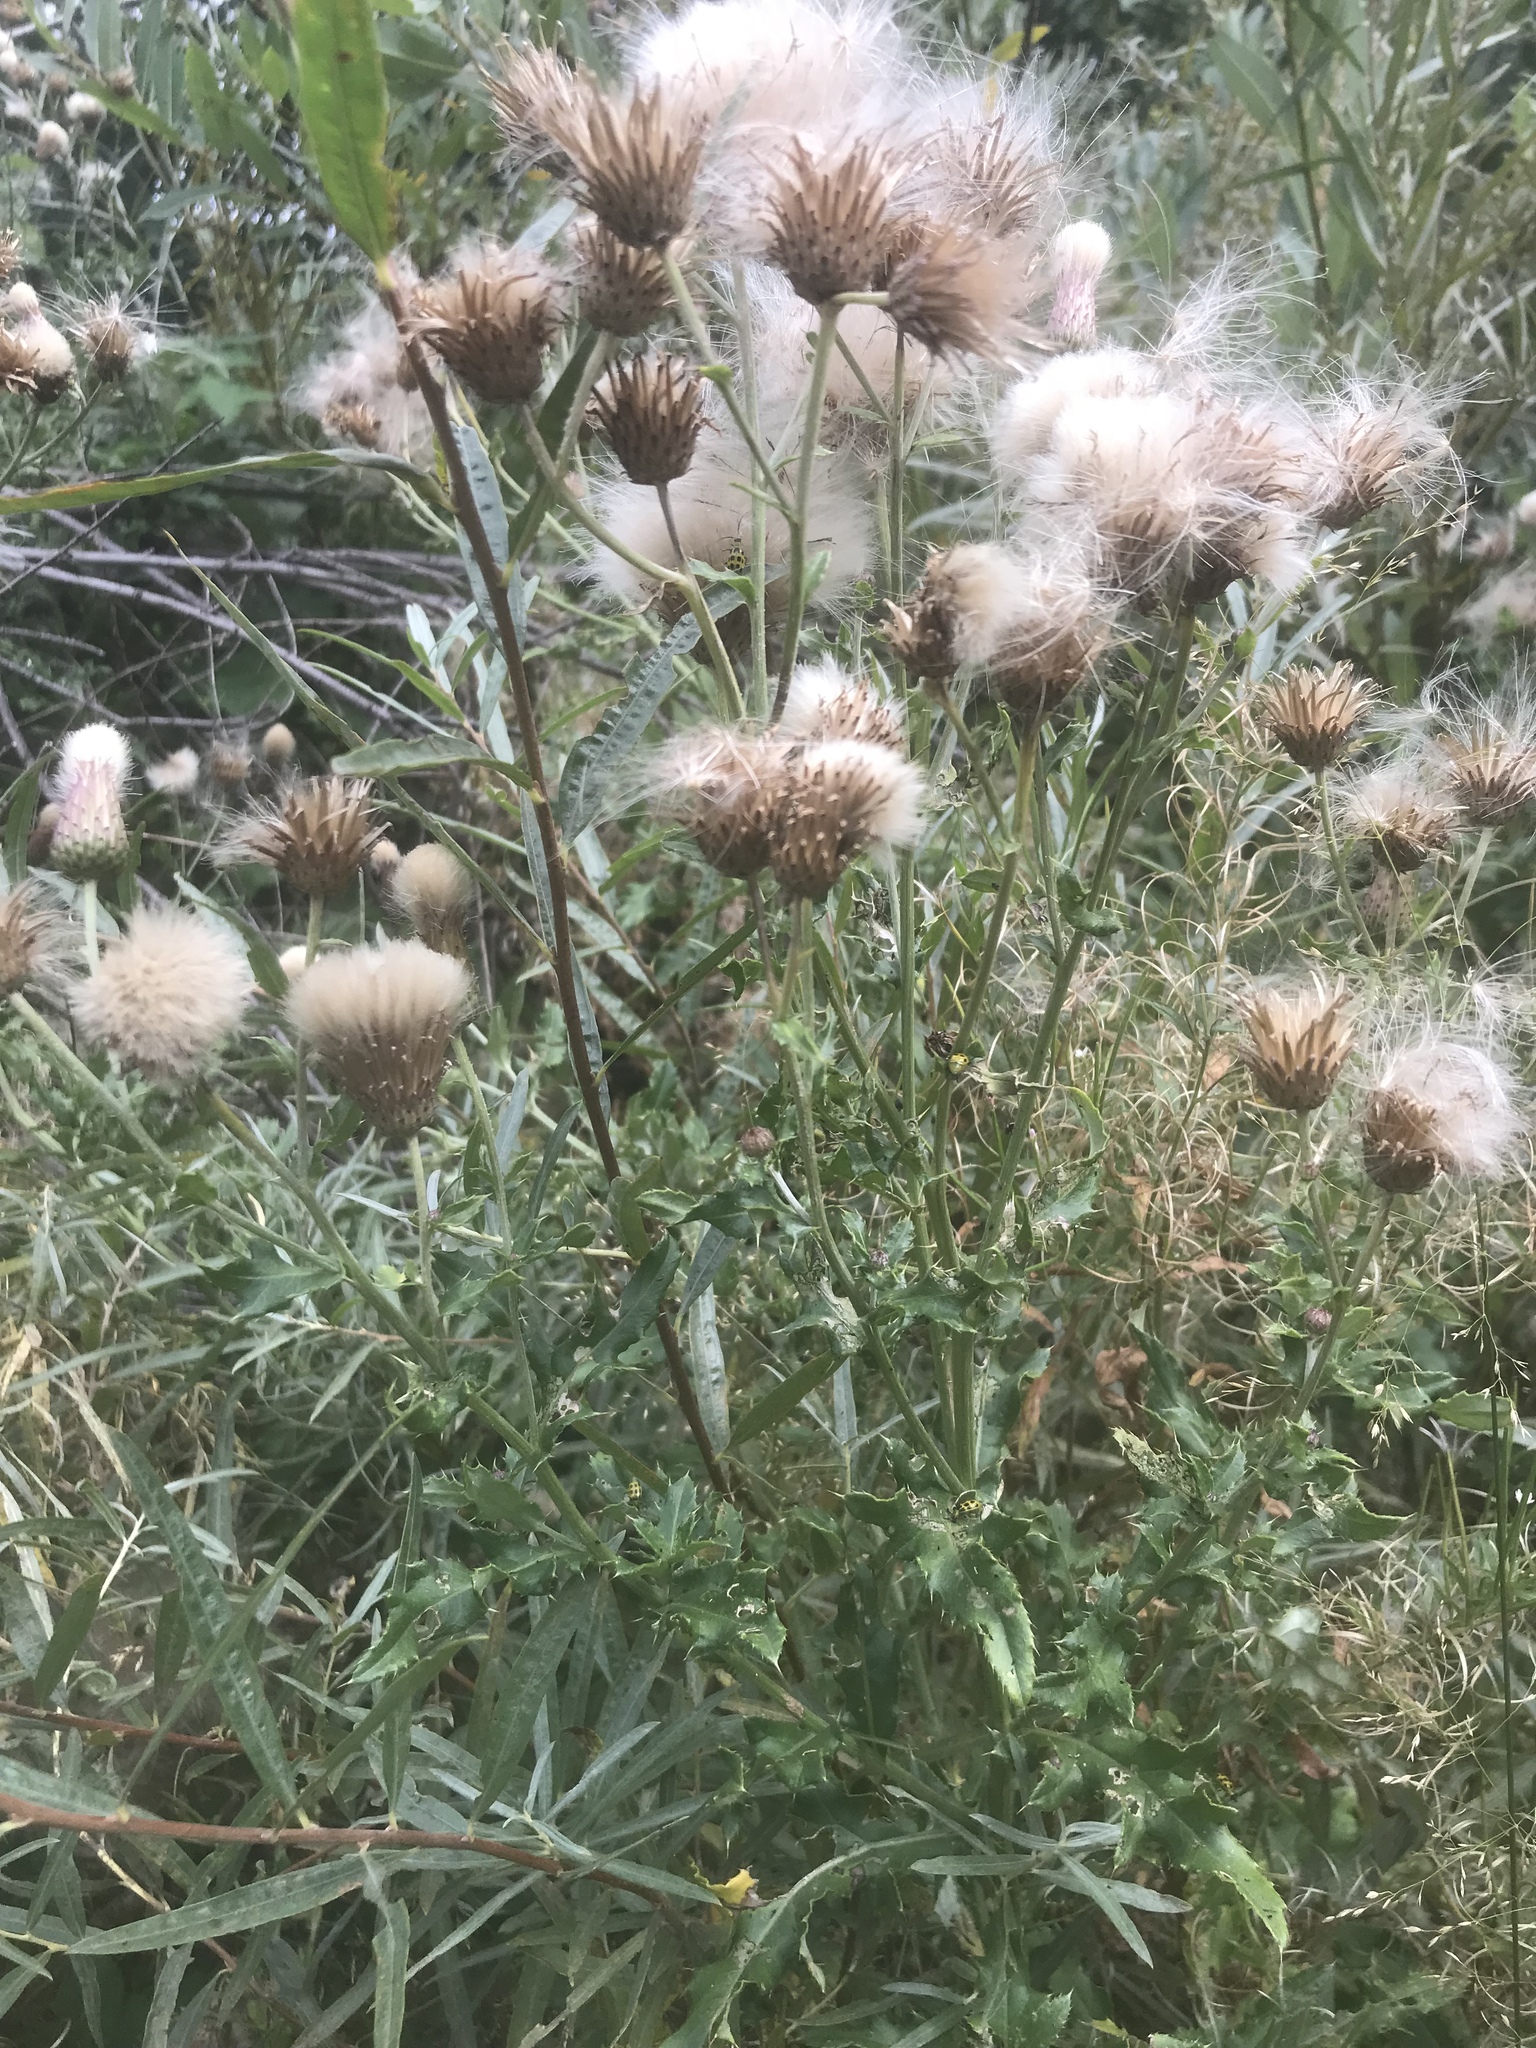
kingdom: Plantae
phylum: Tracheophyta
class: Magnoliopsida
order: Asterales
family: Asteraceae
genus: Cirsium
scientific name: Cirsium arvense
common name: Creeping thistle
